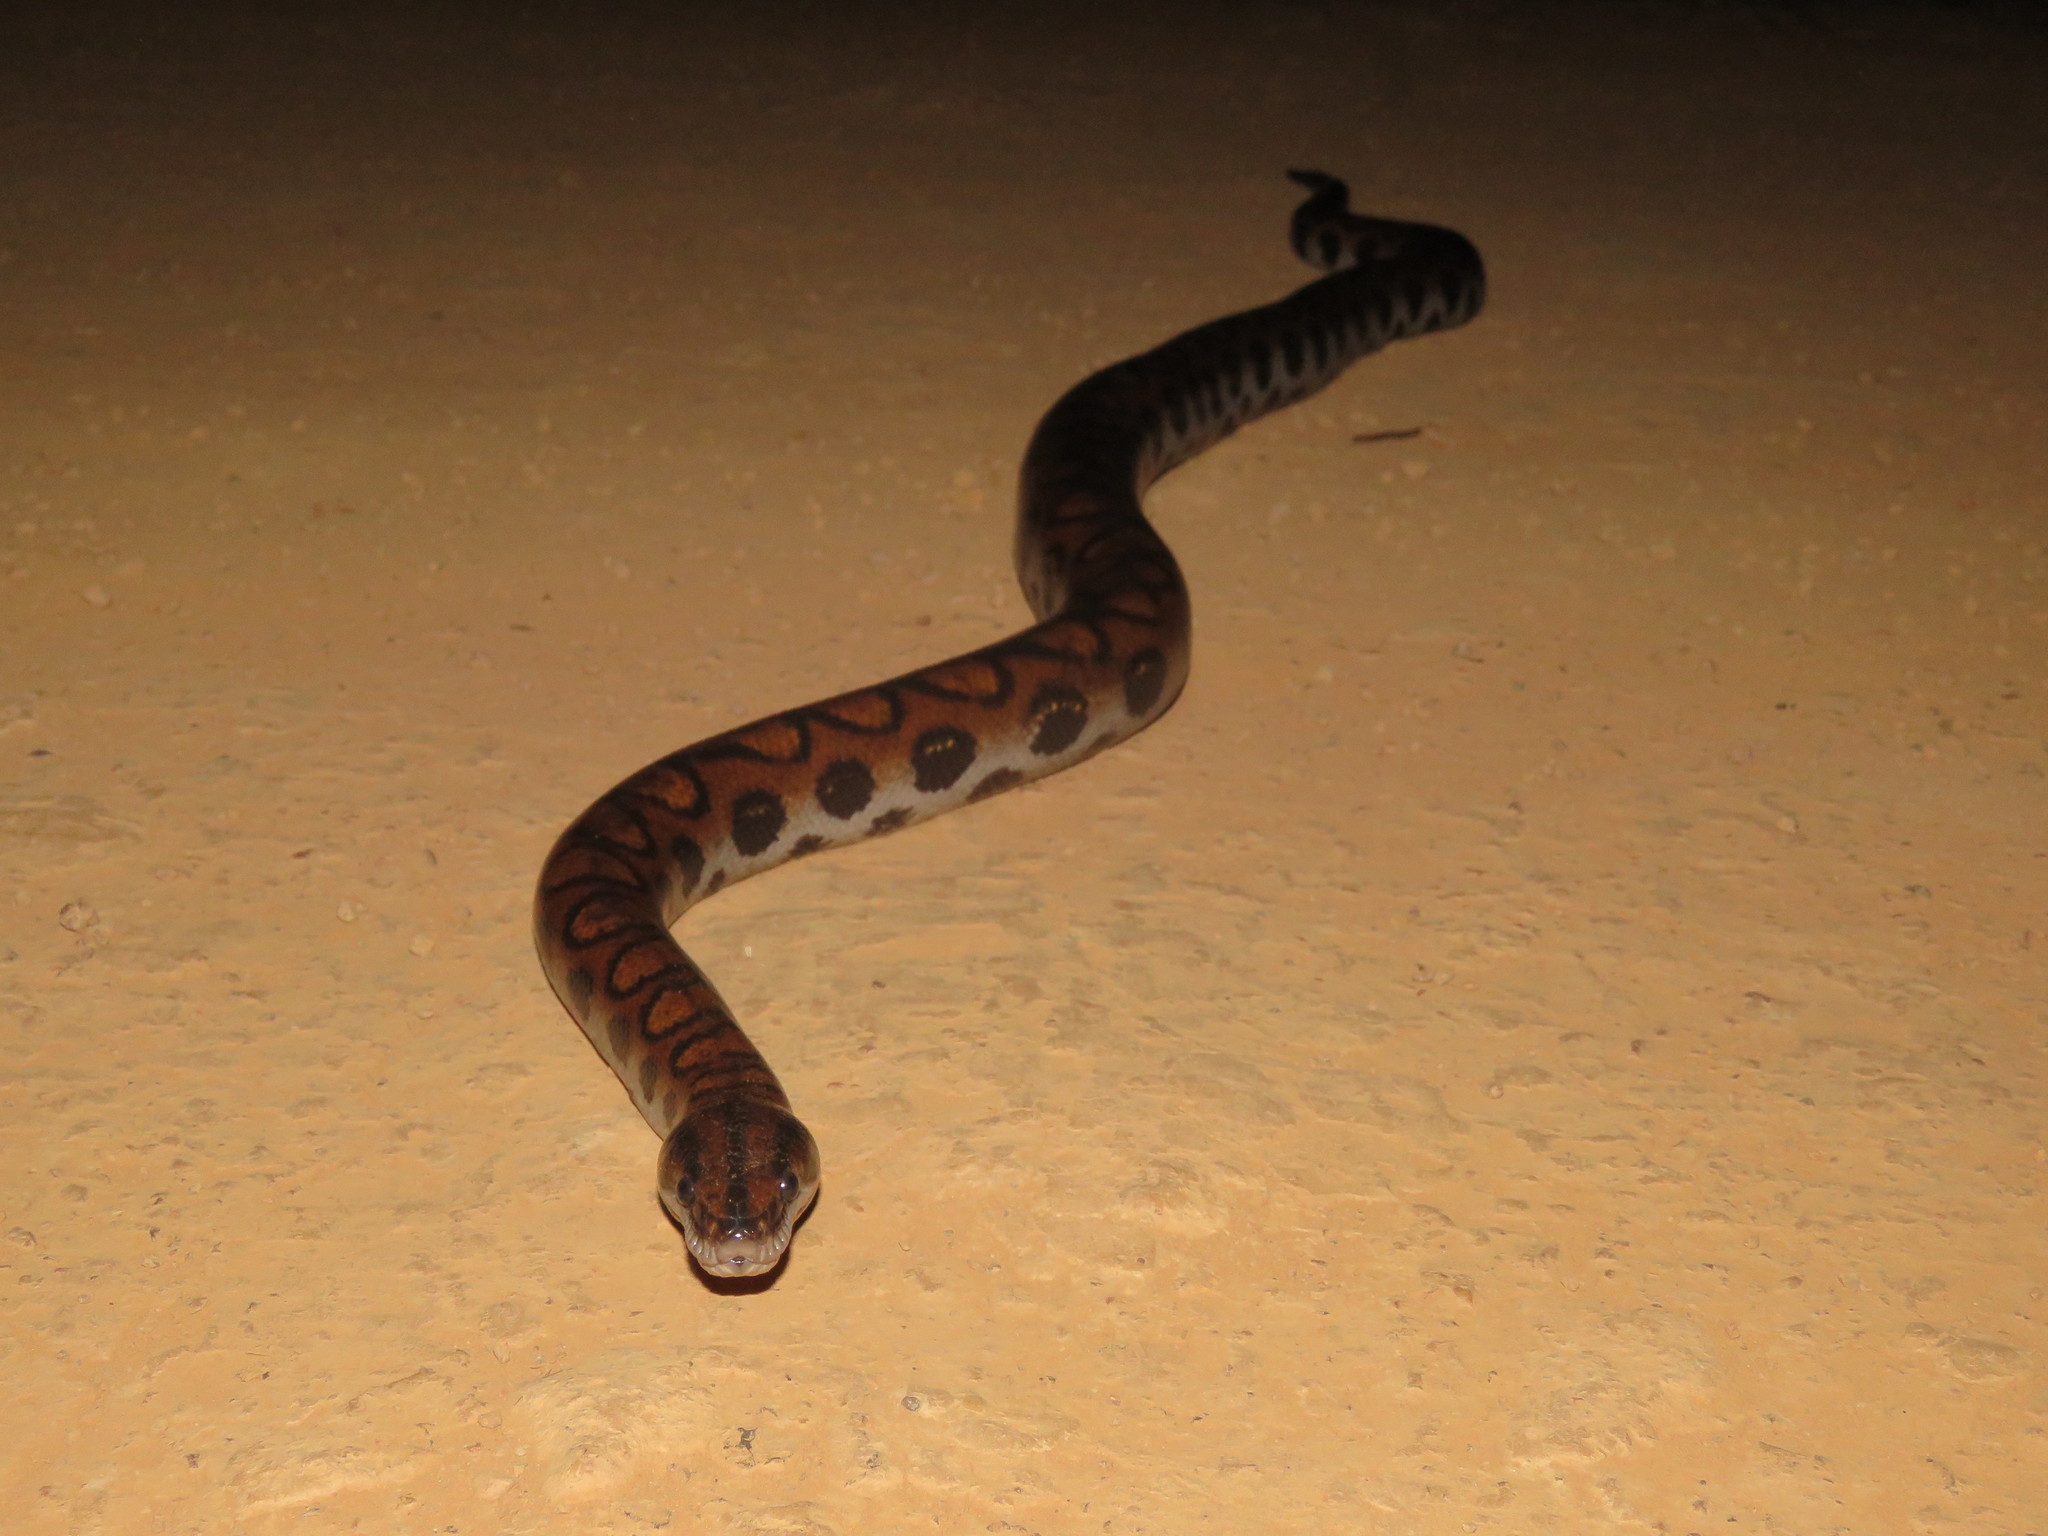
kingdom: Animalia
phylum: Chordata
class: Squamata
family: Boidae
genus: Epicrates
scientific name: Epicrates cenchria
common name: Rainbow boa
